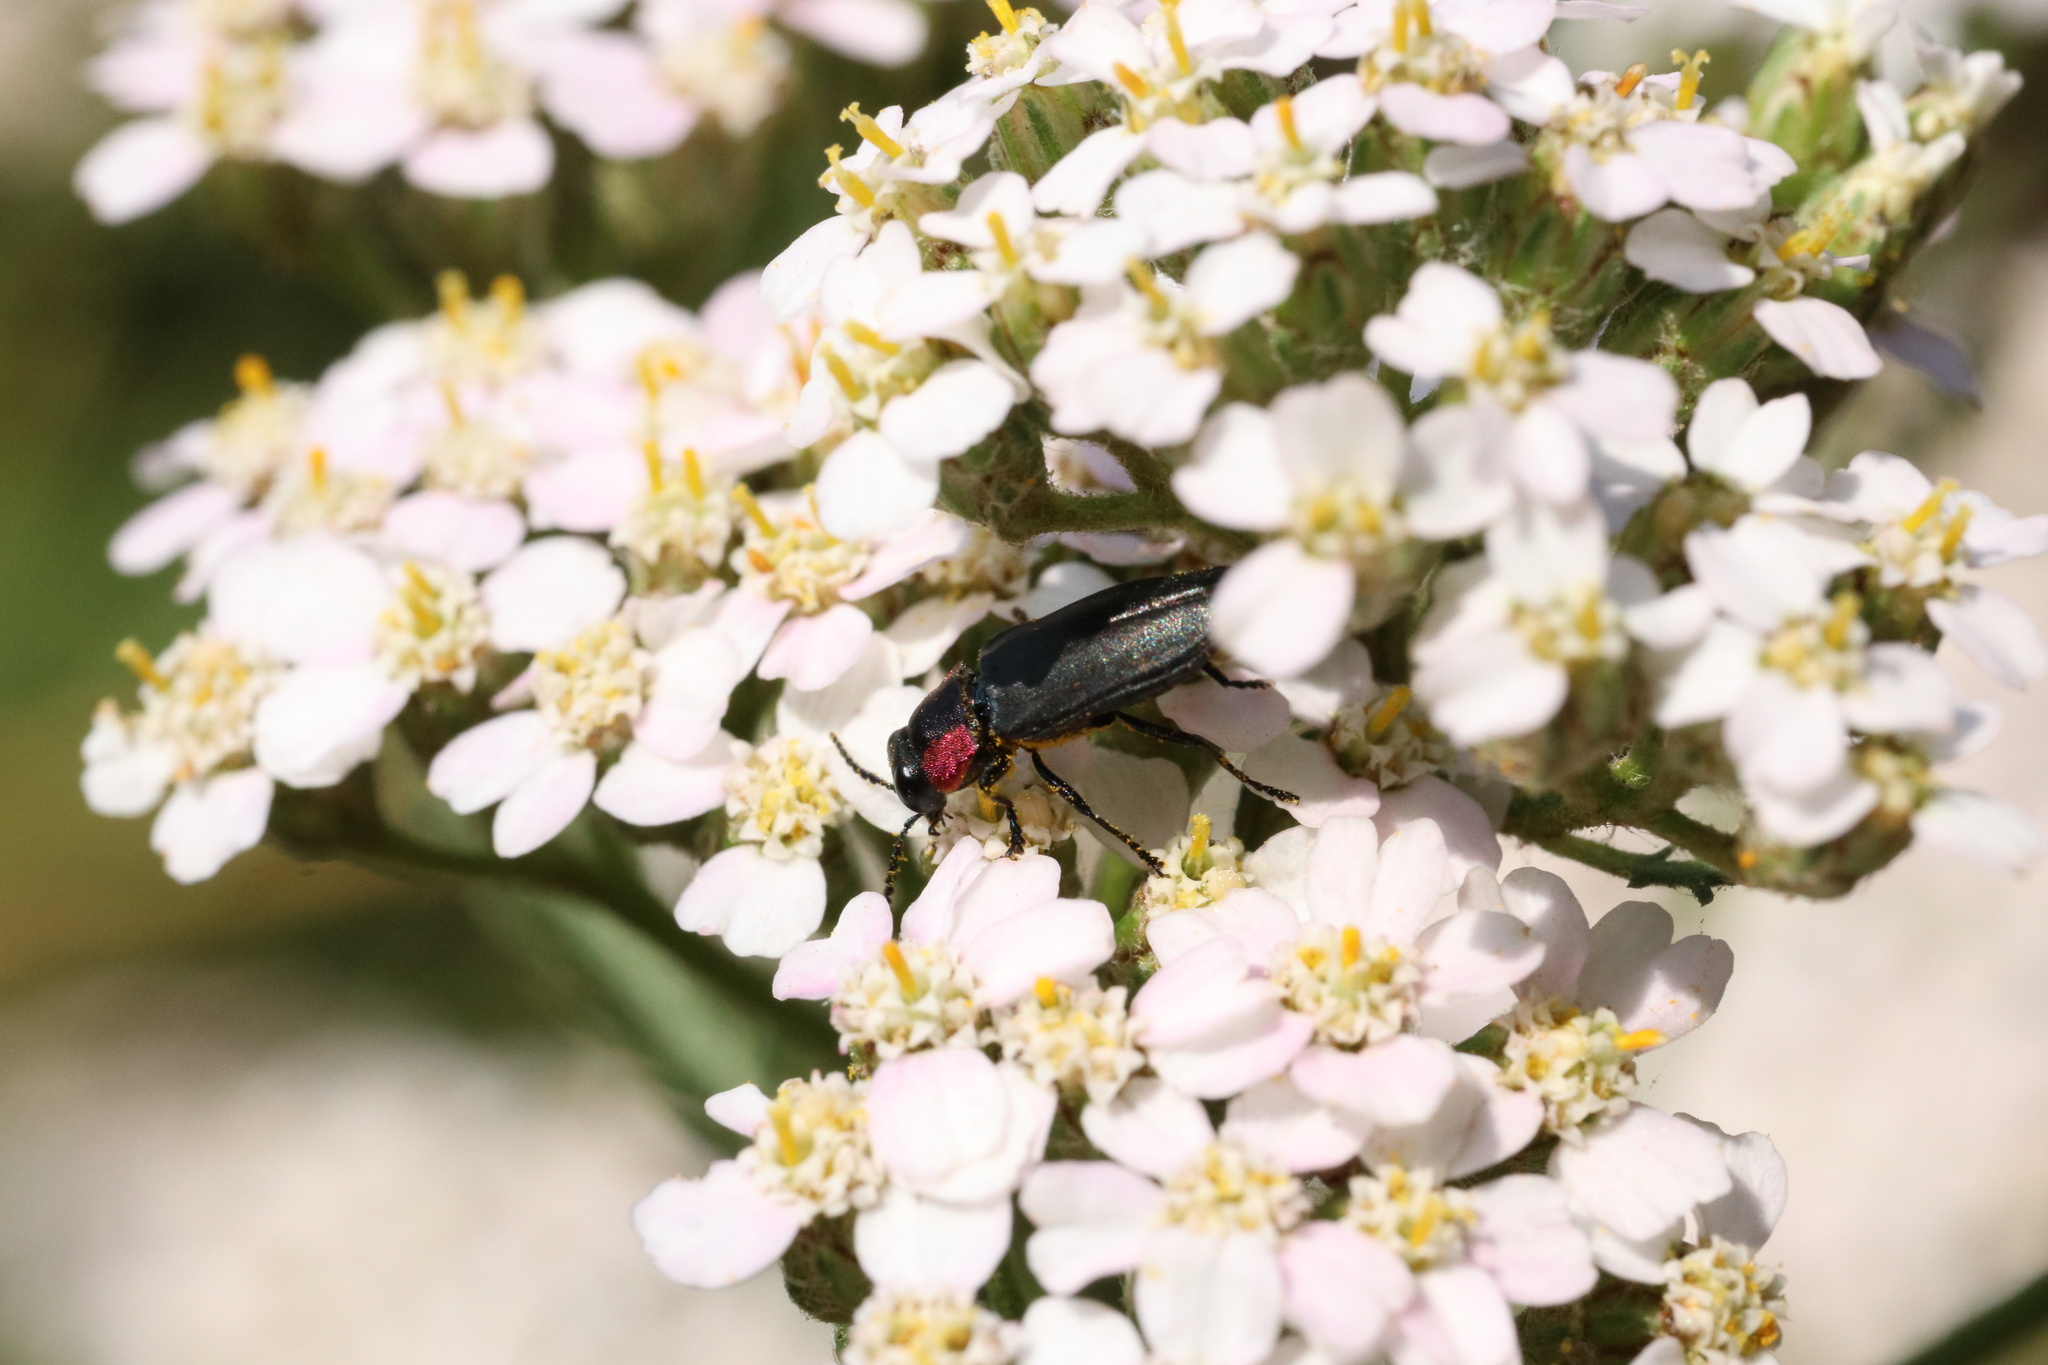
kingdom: Animalia
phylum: Arthropoda
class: Insecta
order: Coleoptera
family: Buprestidae
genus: Romanophora
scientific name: Romanophora verecunda
